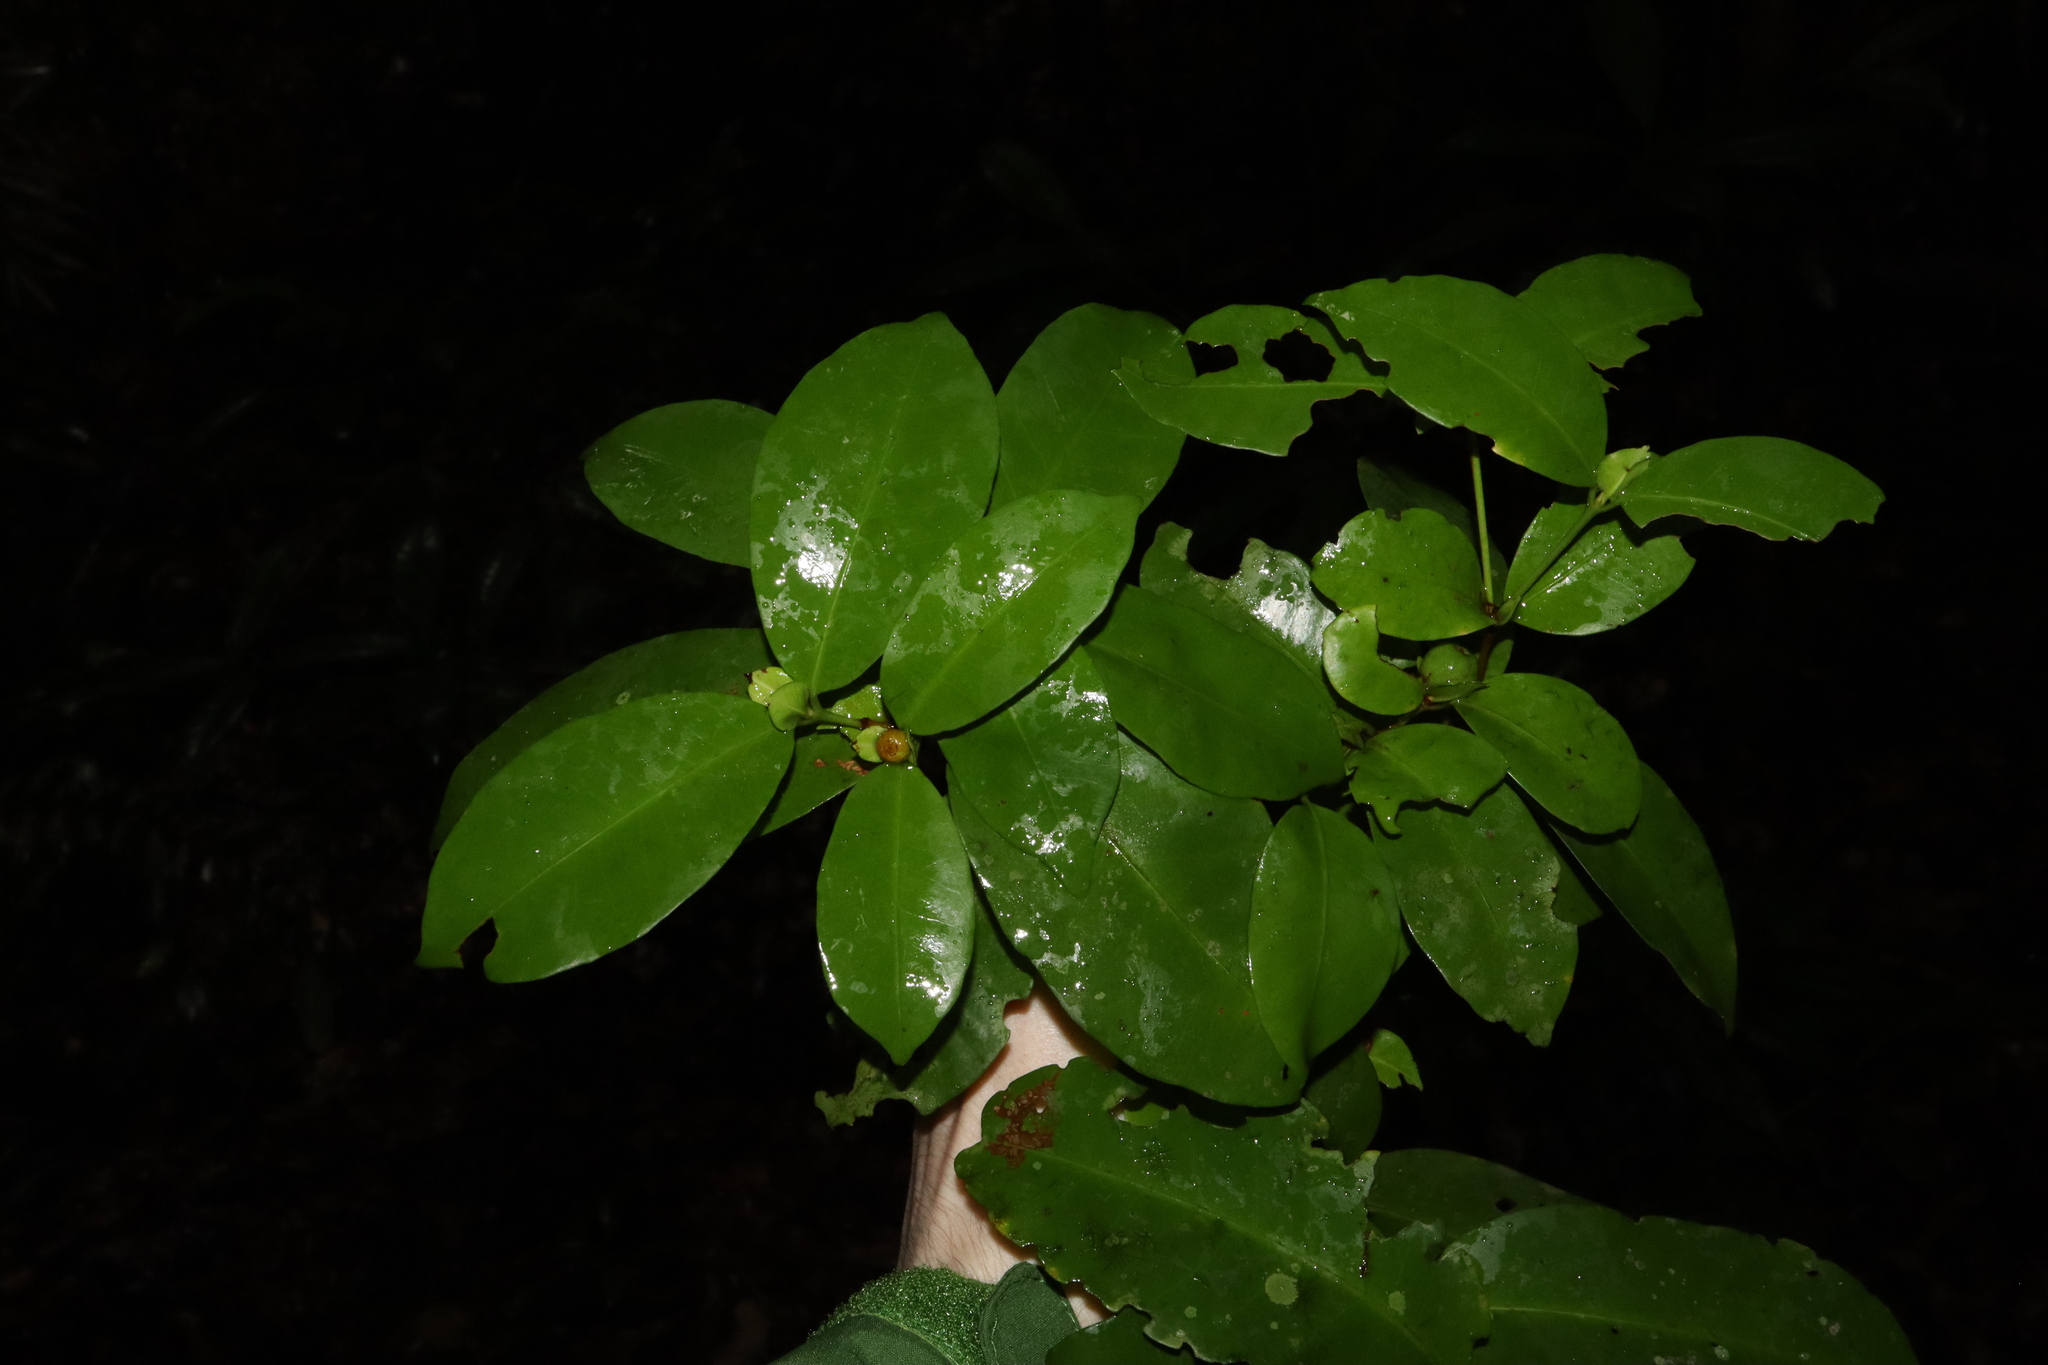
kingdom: Plantae
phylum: Tracheophyta
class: Magnoliopsida
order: Gentianales
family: Rubiaceae
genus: Ixora
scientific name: Ixora biflora
